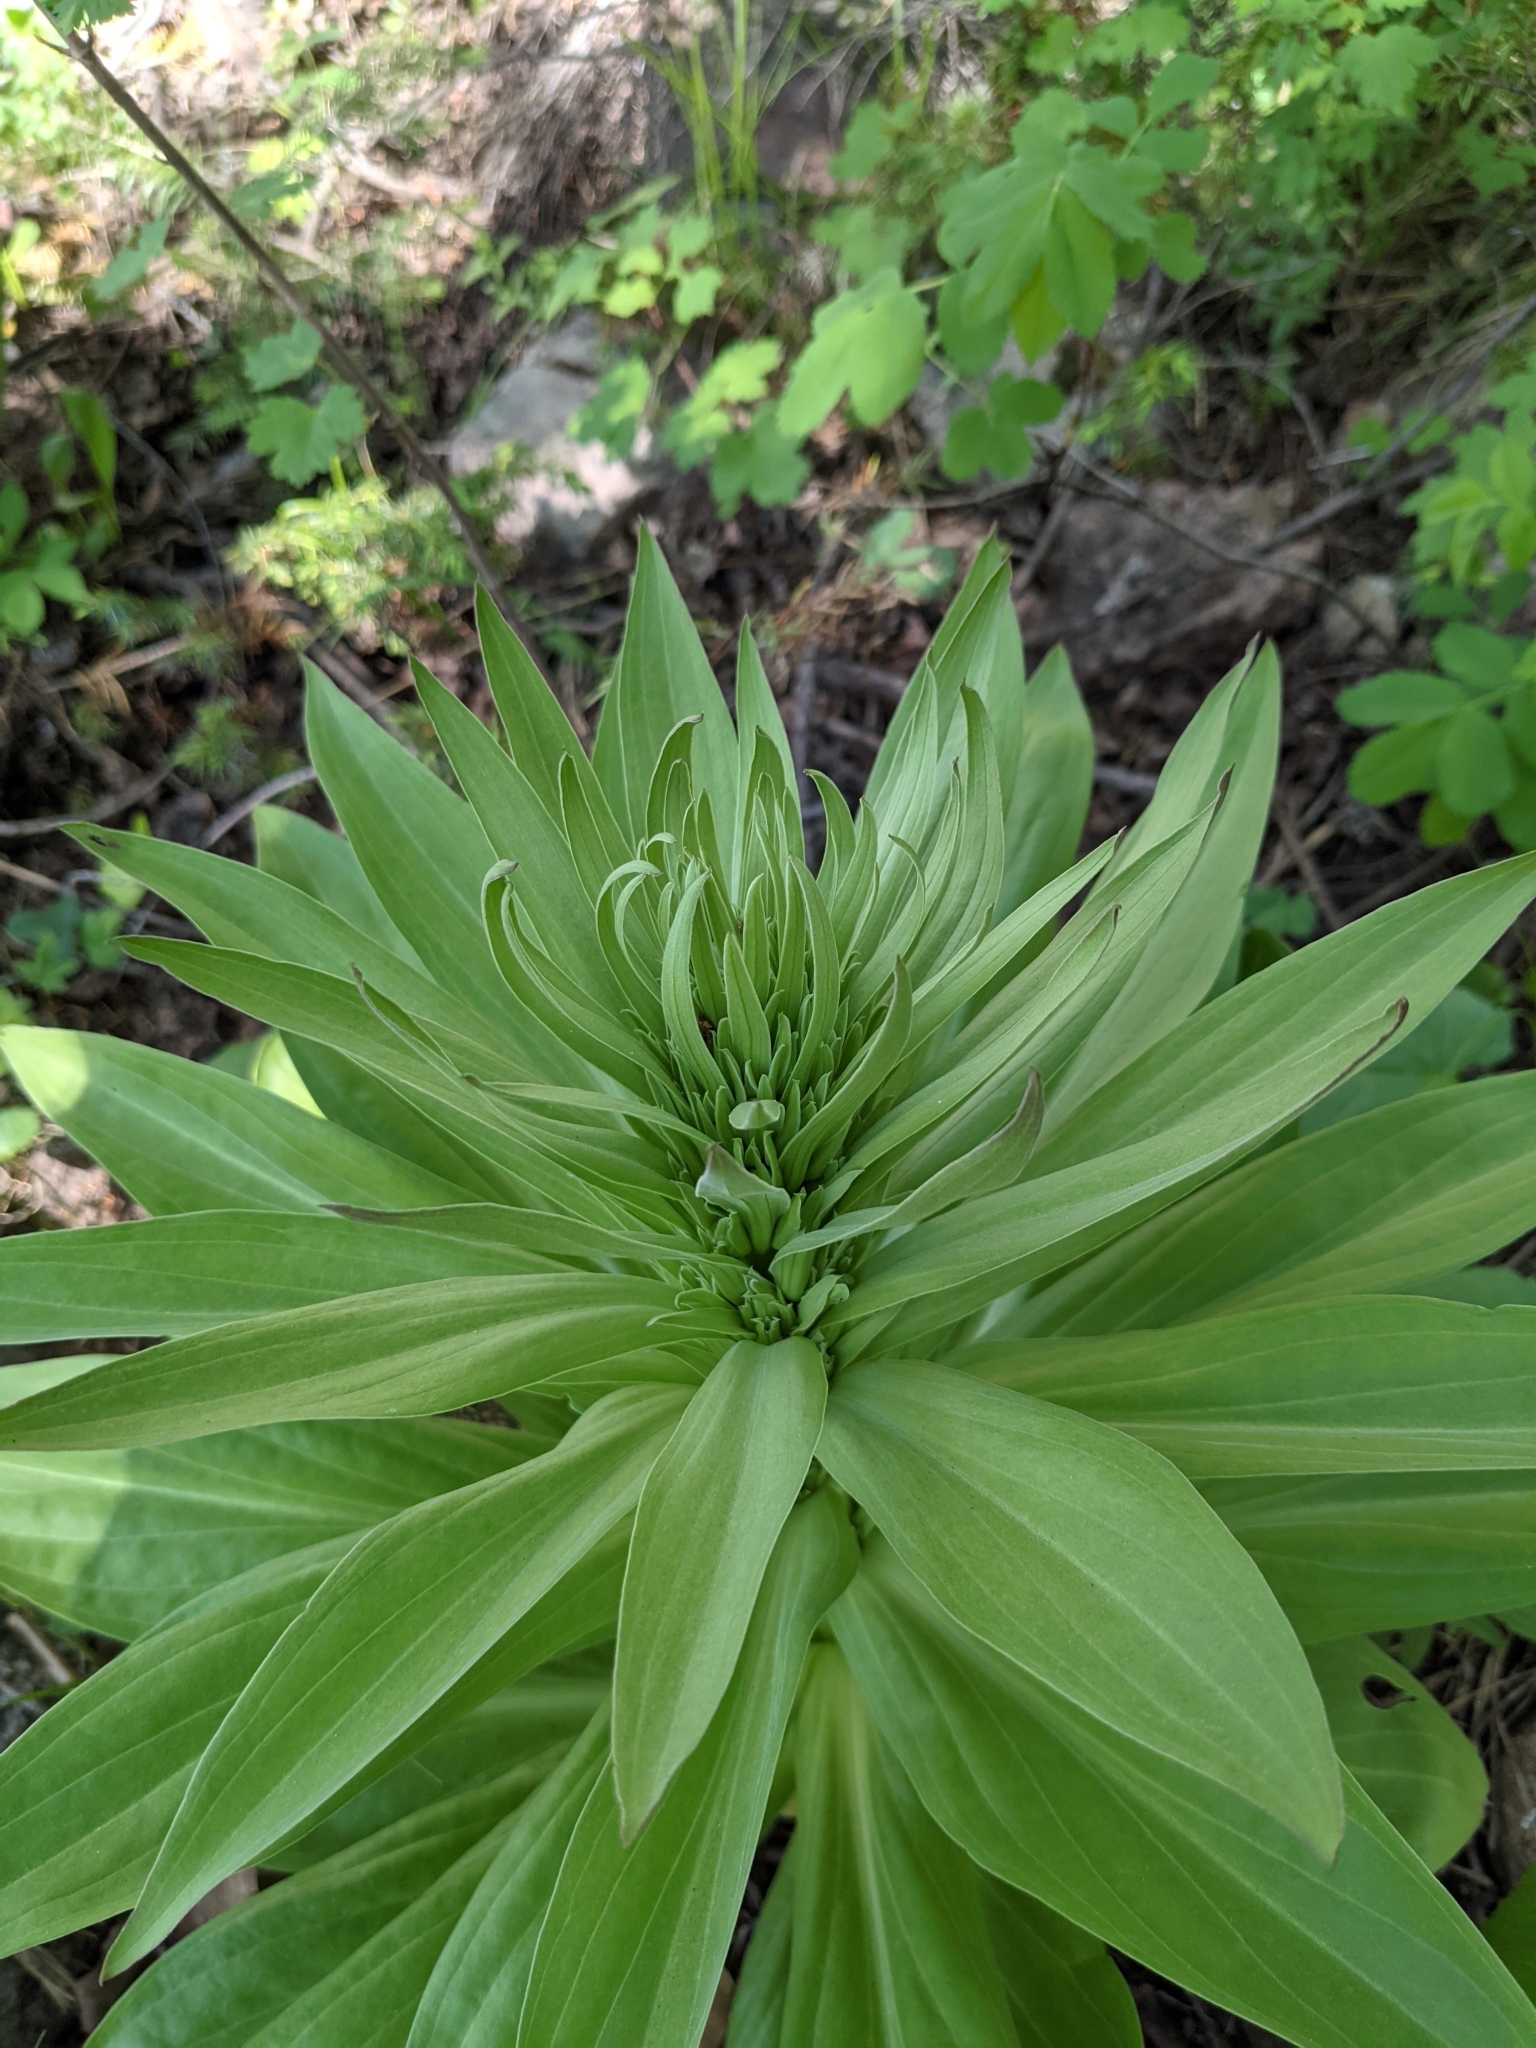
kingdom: Plantae
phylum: Tracheophyta
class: Magnoliopsida
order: Gentianales
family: Gentianaceae
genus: Frasera
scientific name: Frasera speciosa
